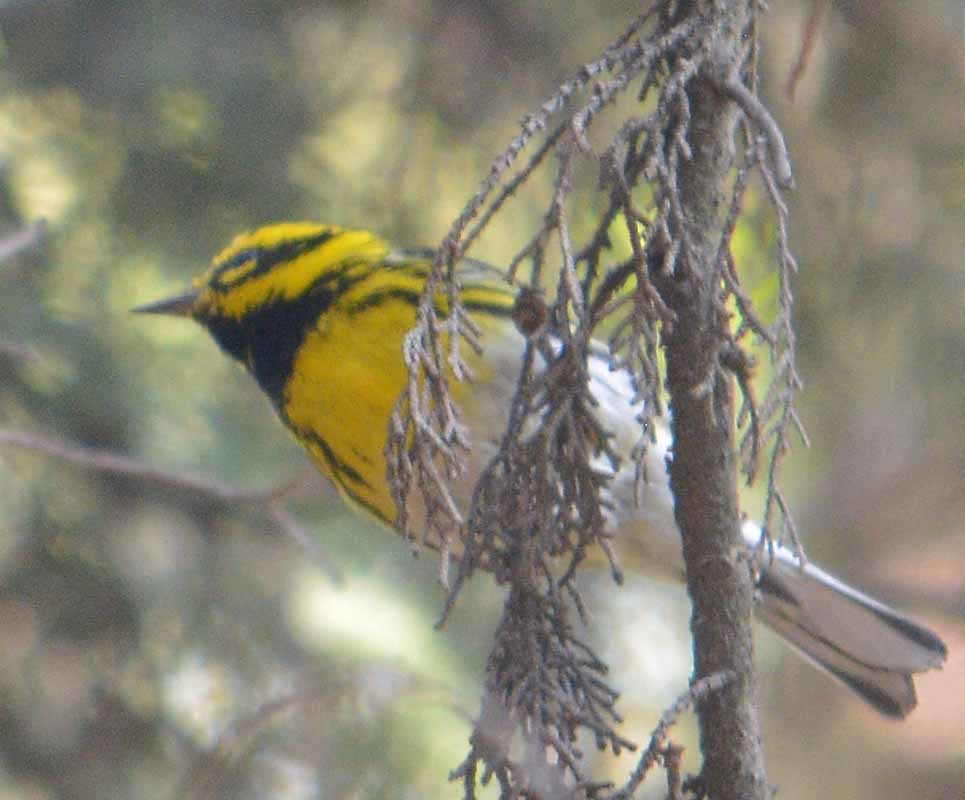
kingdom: Animalia
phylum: Chordata
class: Aves
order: Passeriformes
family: Parulidae
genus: Setophaga
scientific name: Setophaga townsendi
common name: Townsend's warbler
